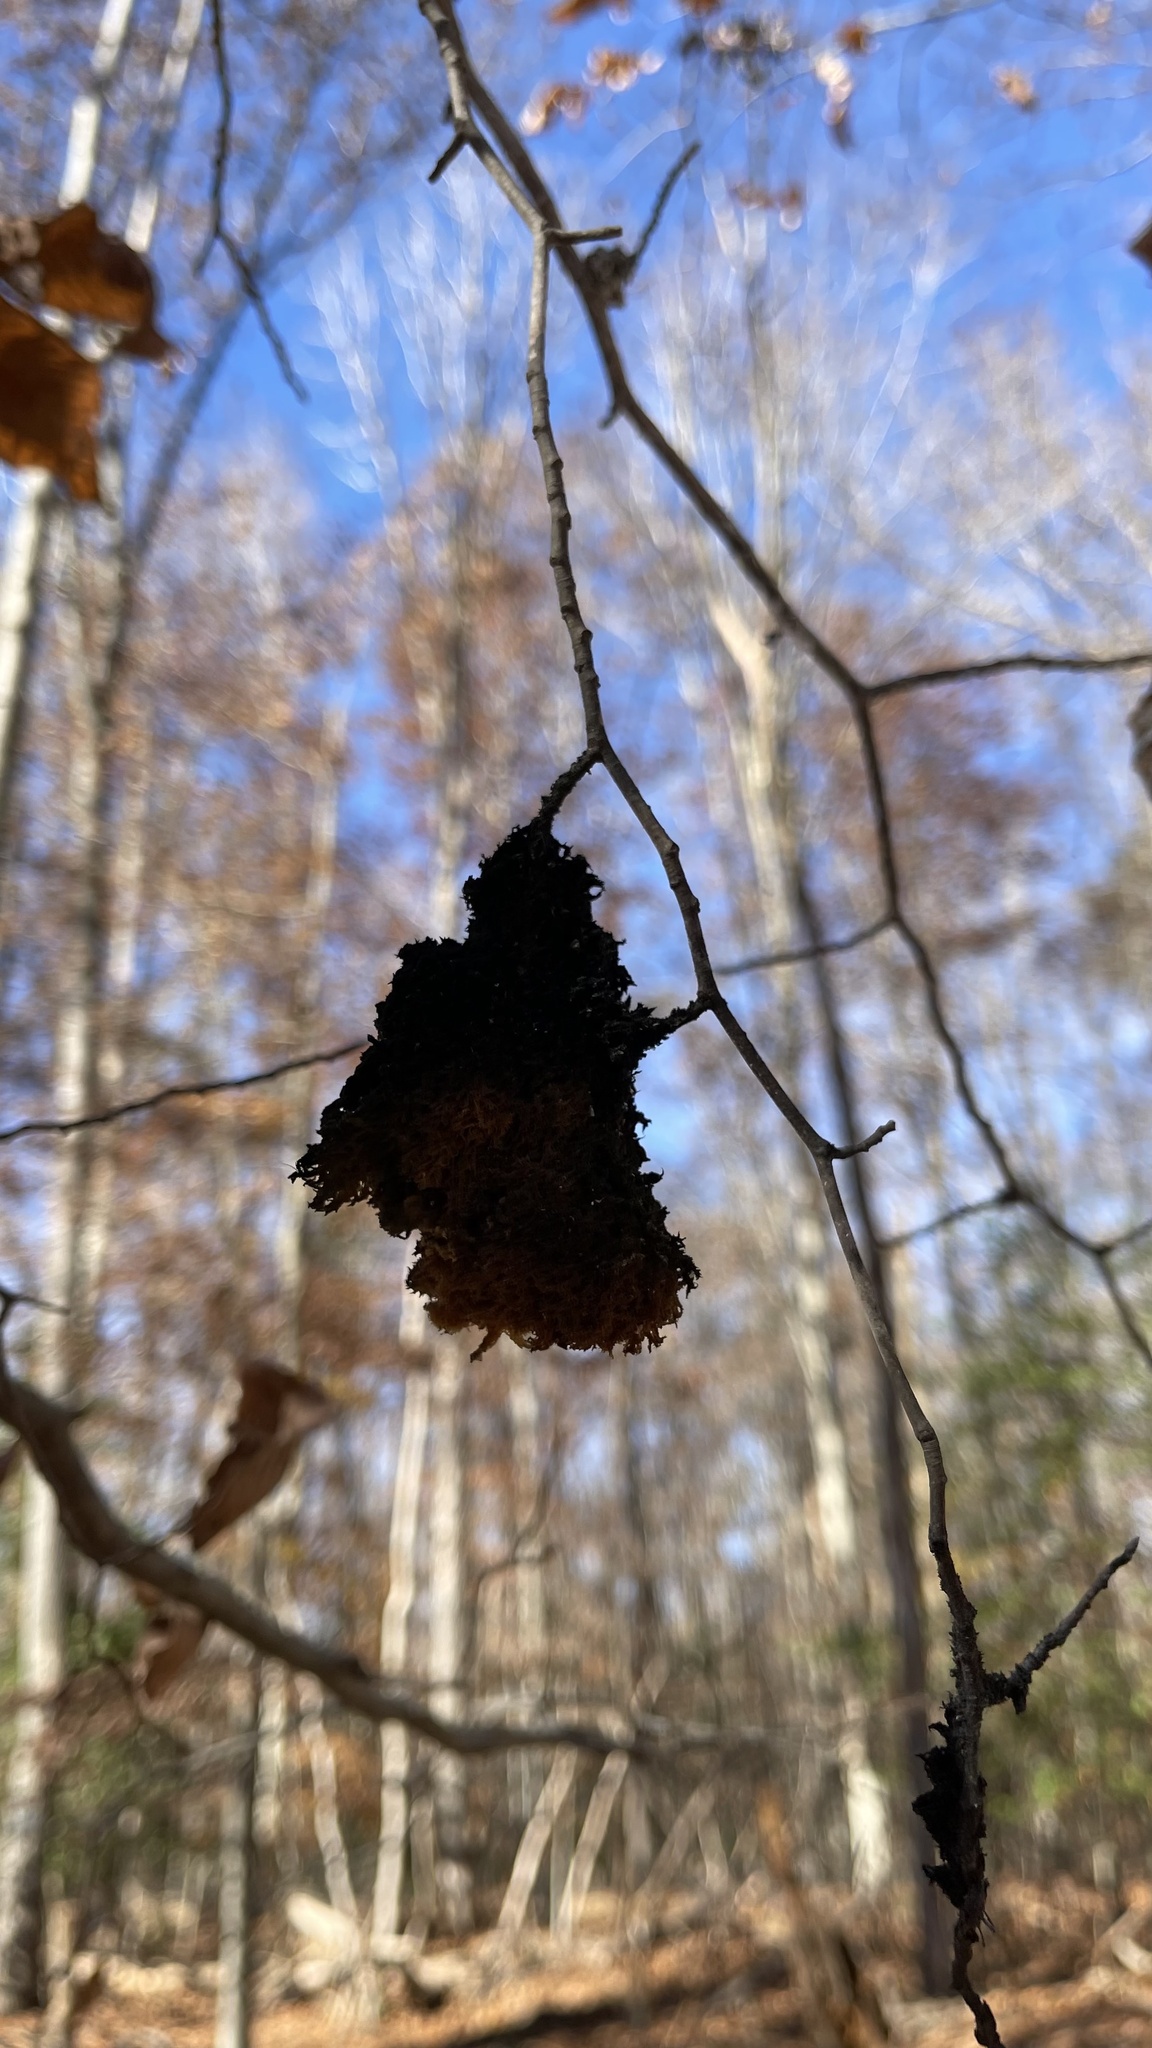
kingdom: Fungi
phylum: Ascomycota
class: Dothideomycetes
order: Capnodiales
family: Capnodiaceae
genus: Scorias
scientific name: Scorias spongiosa
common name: Black sooty mold
